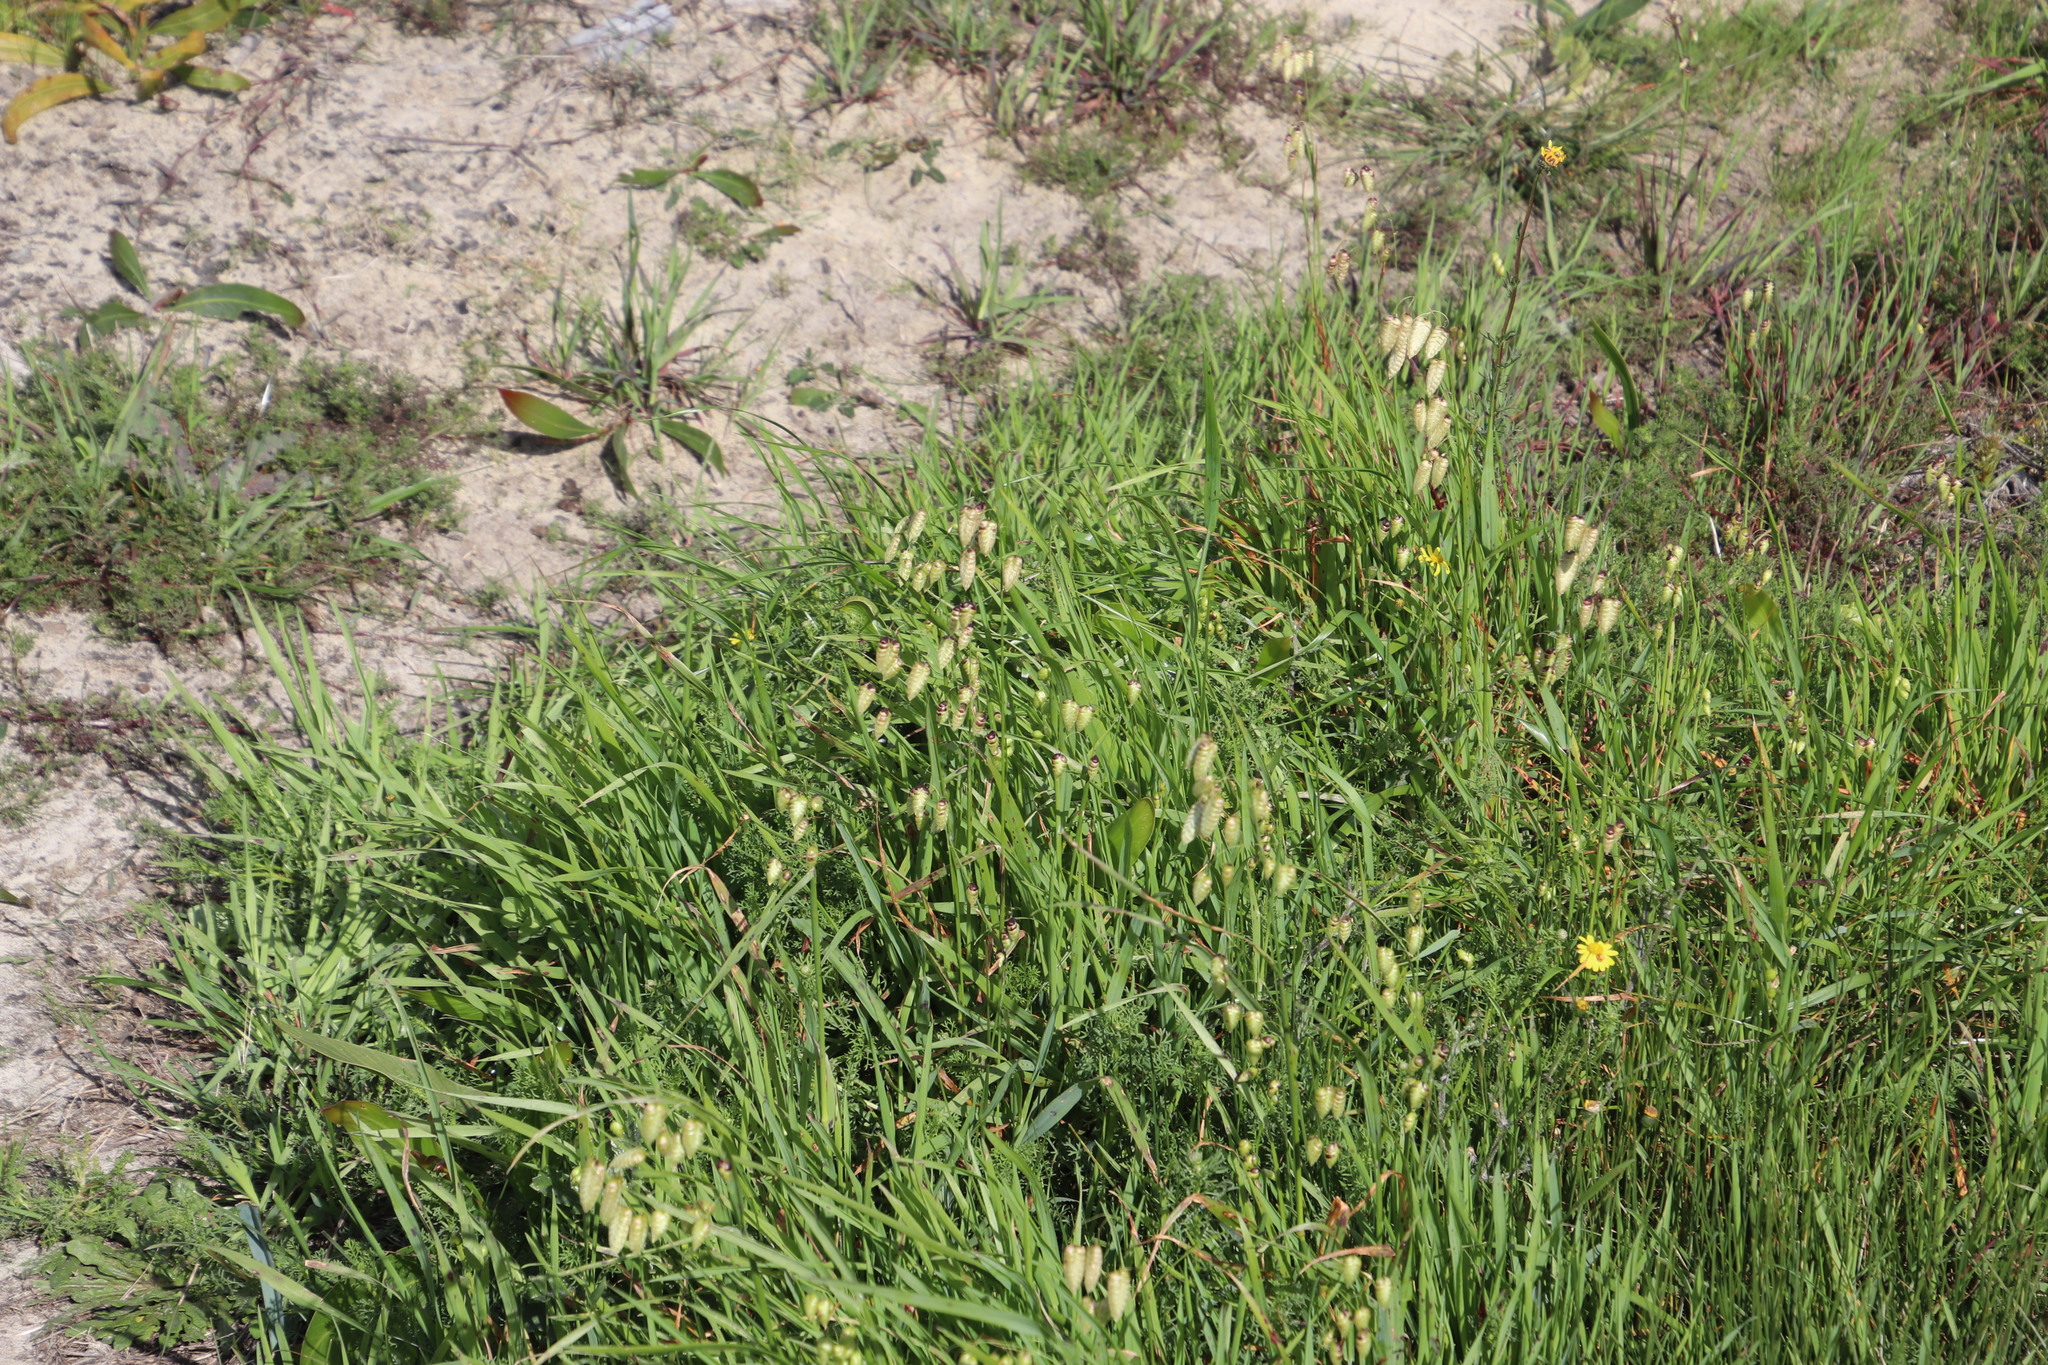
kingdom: Plantae
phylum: Tracheophyta
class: Liliopsida
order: Poales
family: Poaceae
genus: Briza
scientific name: Briza maxima
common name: Big quakinggrass
